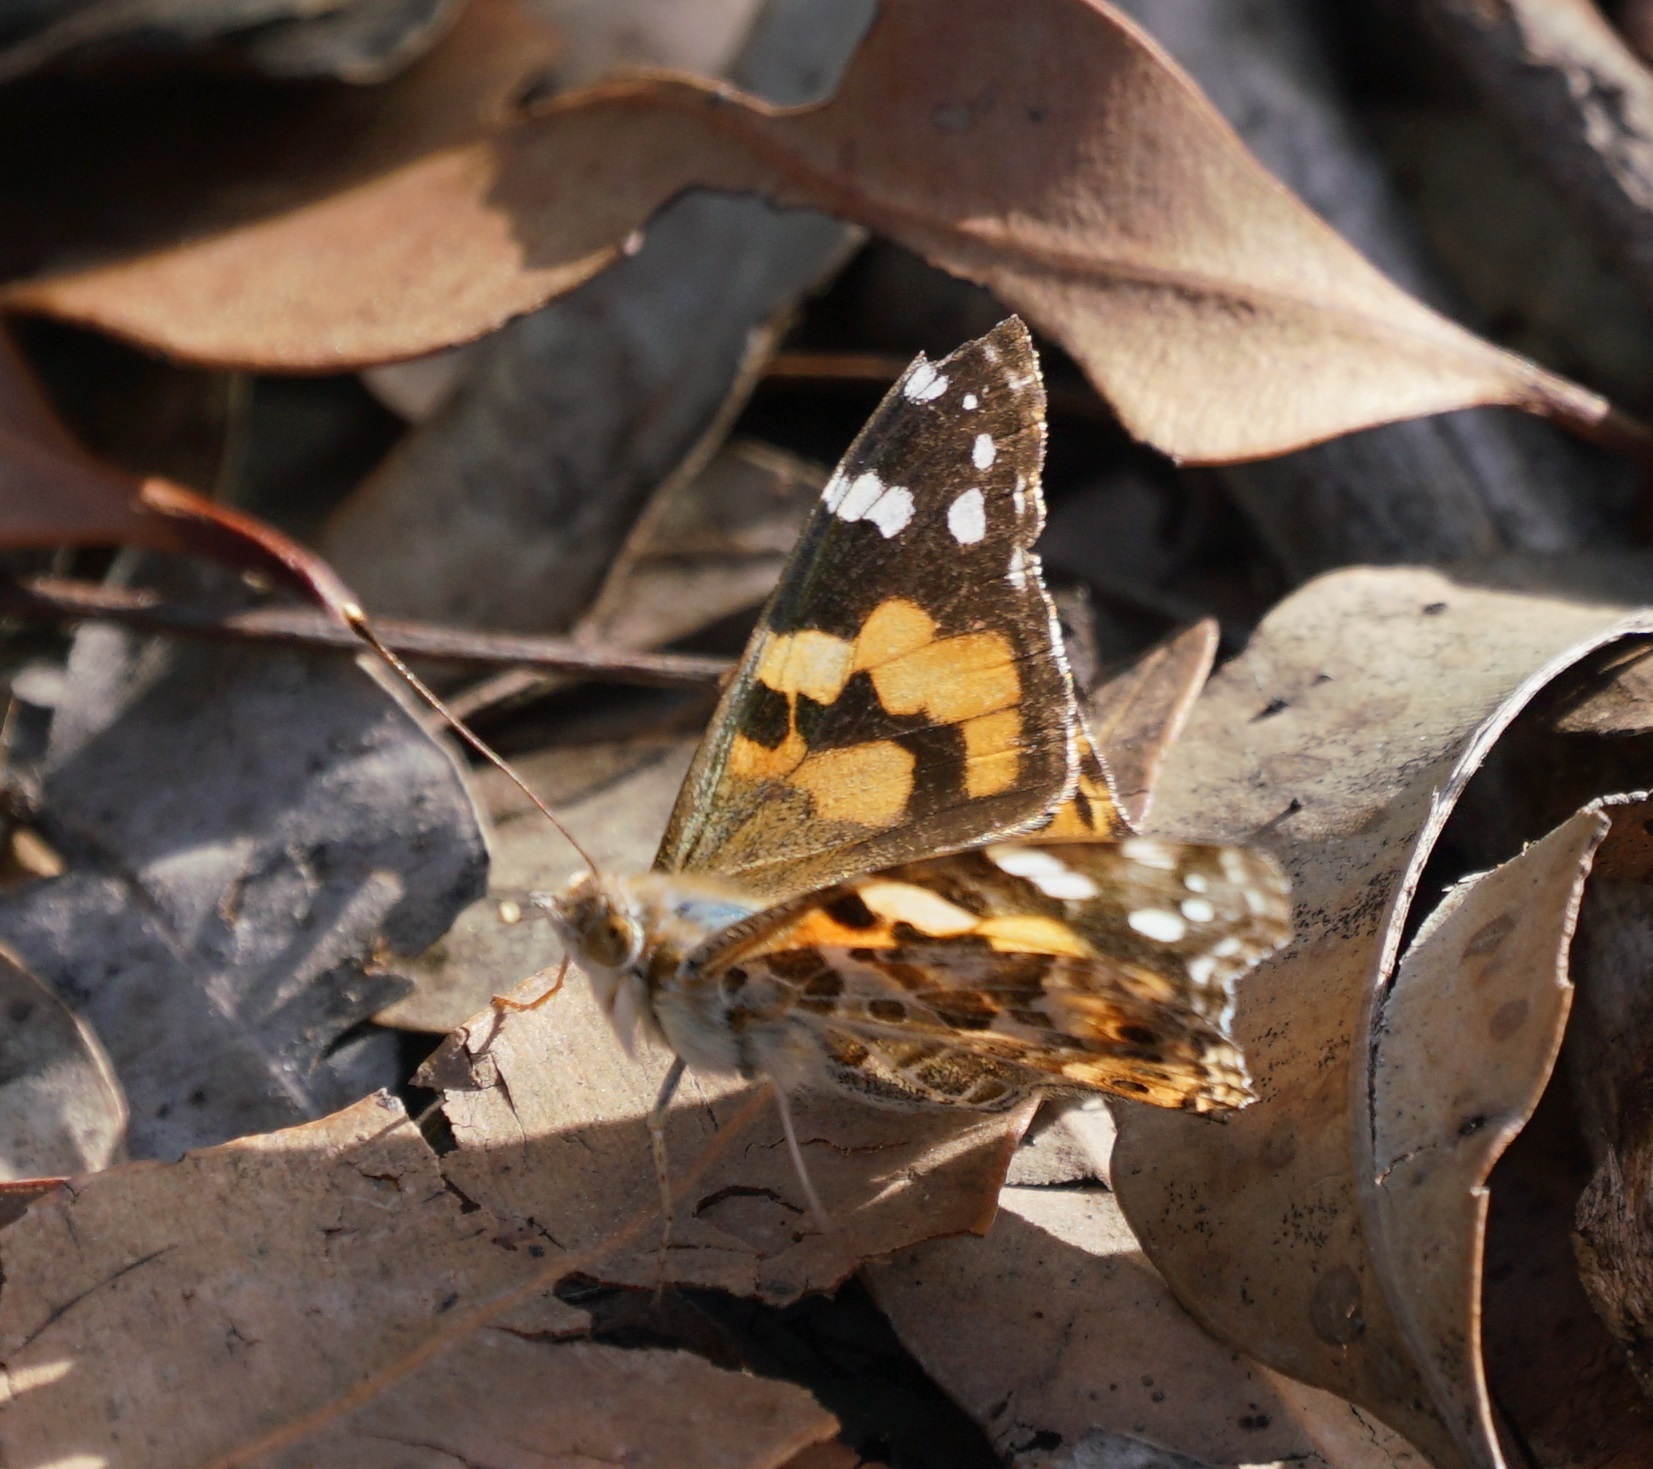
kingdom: Animalia
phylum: Arthropoda
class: Insecta
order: Lepidoptera
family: Nymphalidae
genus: Vanessa
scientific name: Vanessa kershawi
